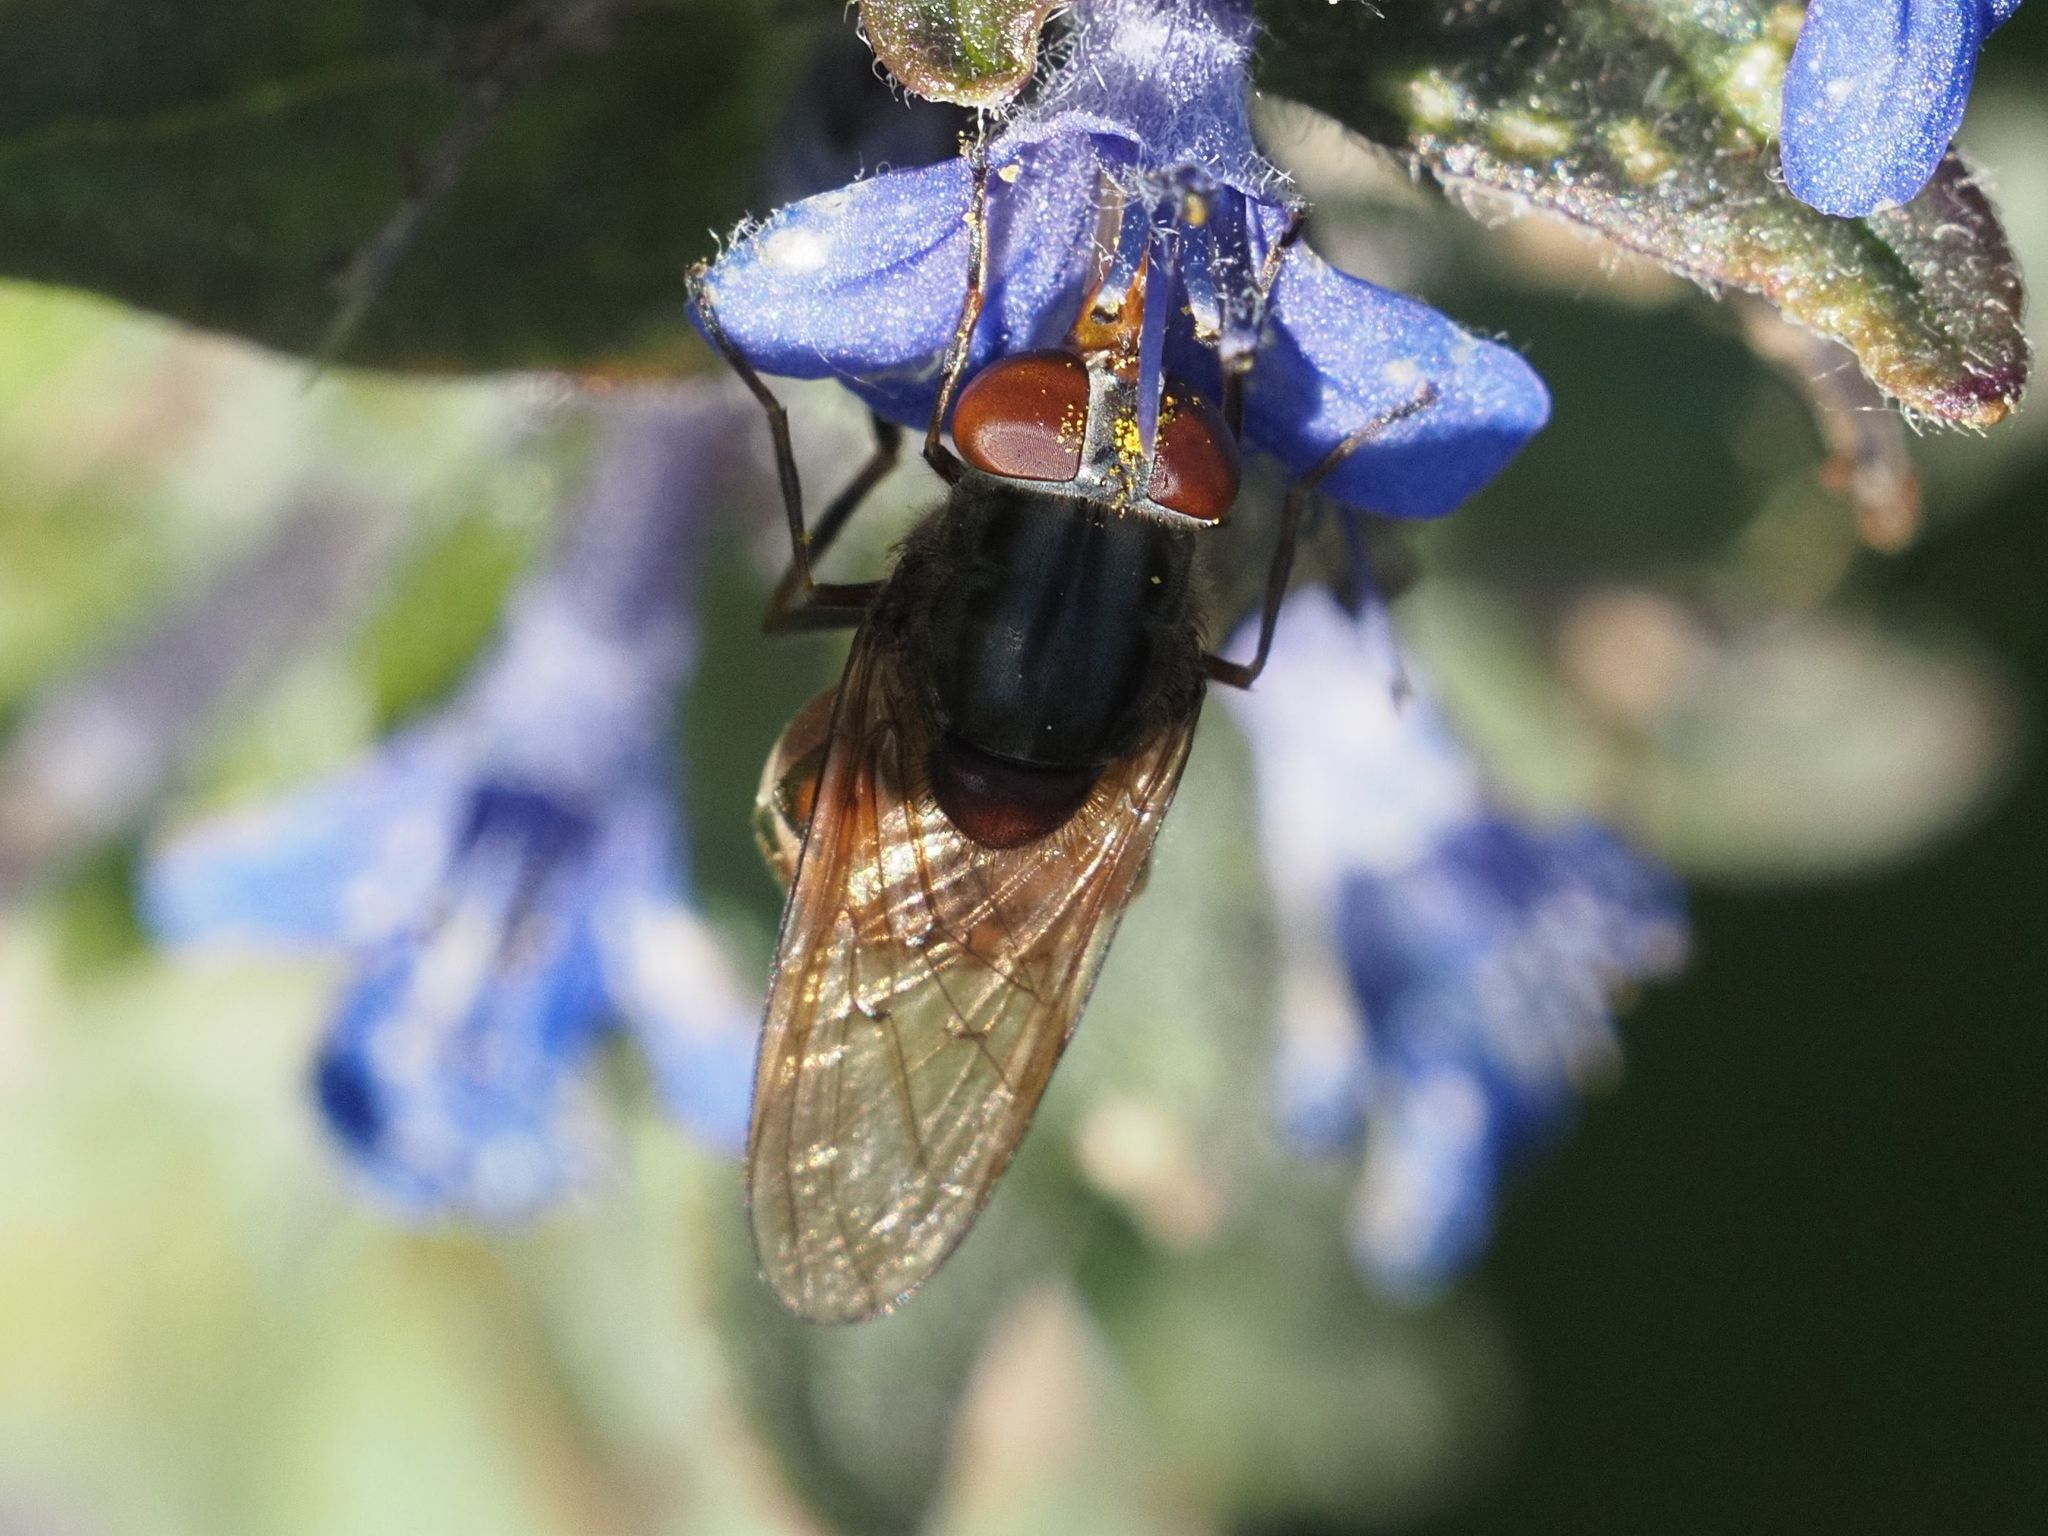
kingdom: Animalia
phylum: Arthropoda
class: Insecta
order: Diptera
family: Syrphidae
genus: Rhingia
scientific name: Rhingia campestris
